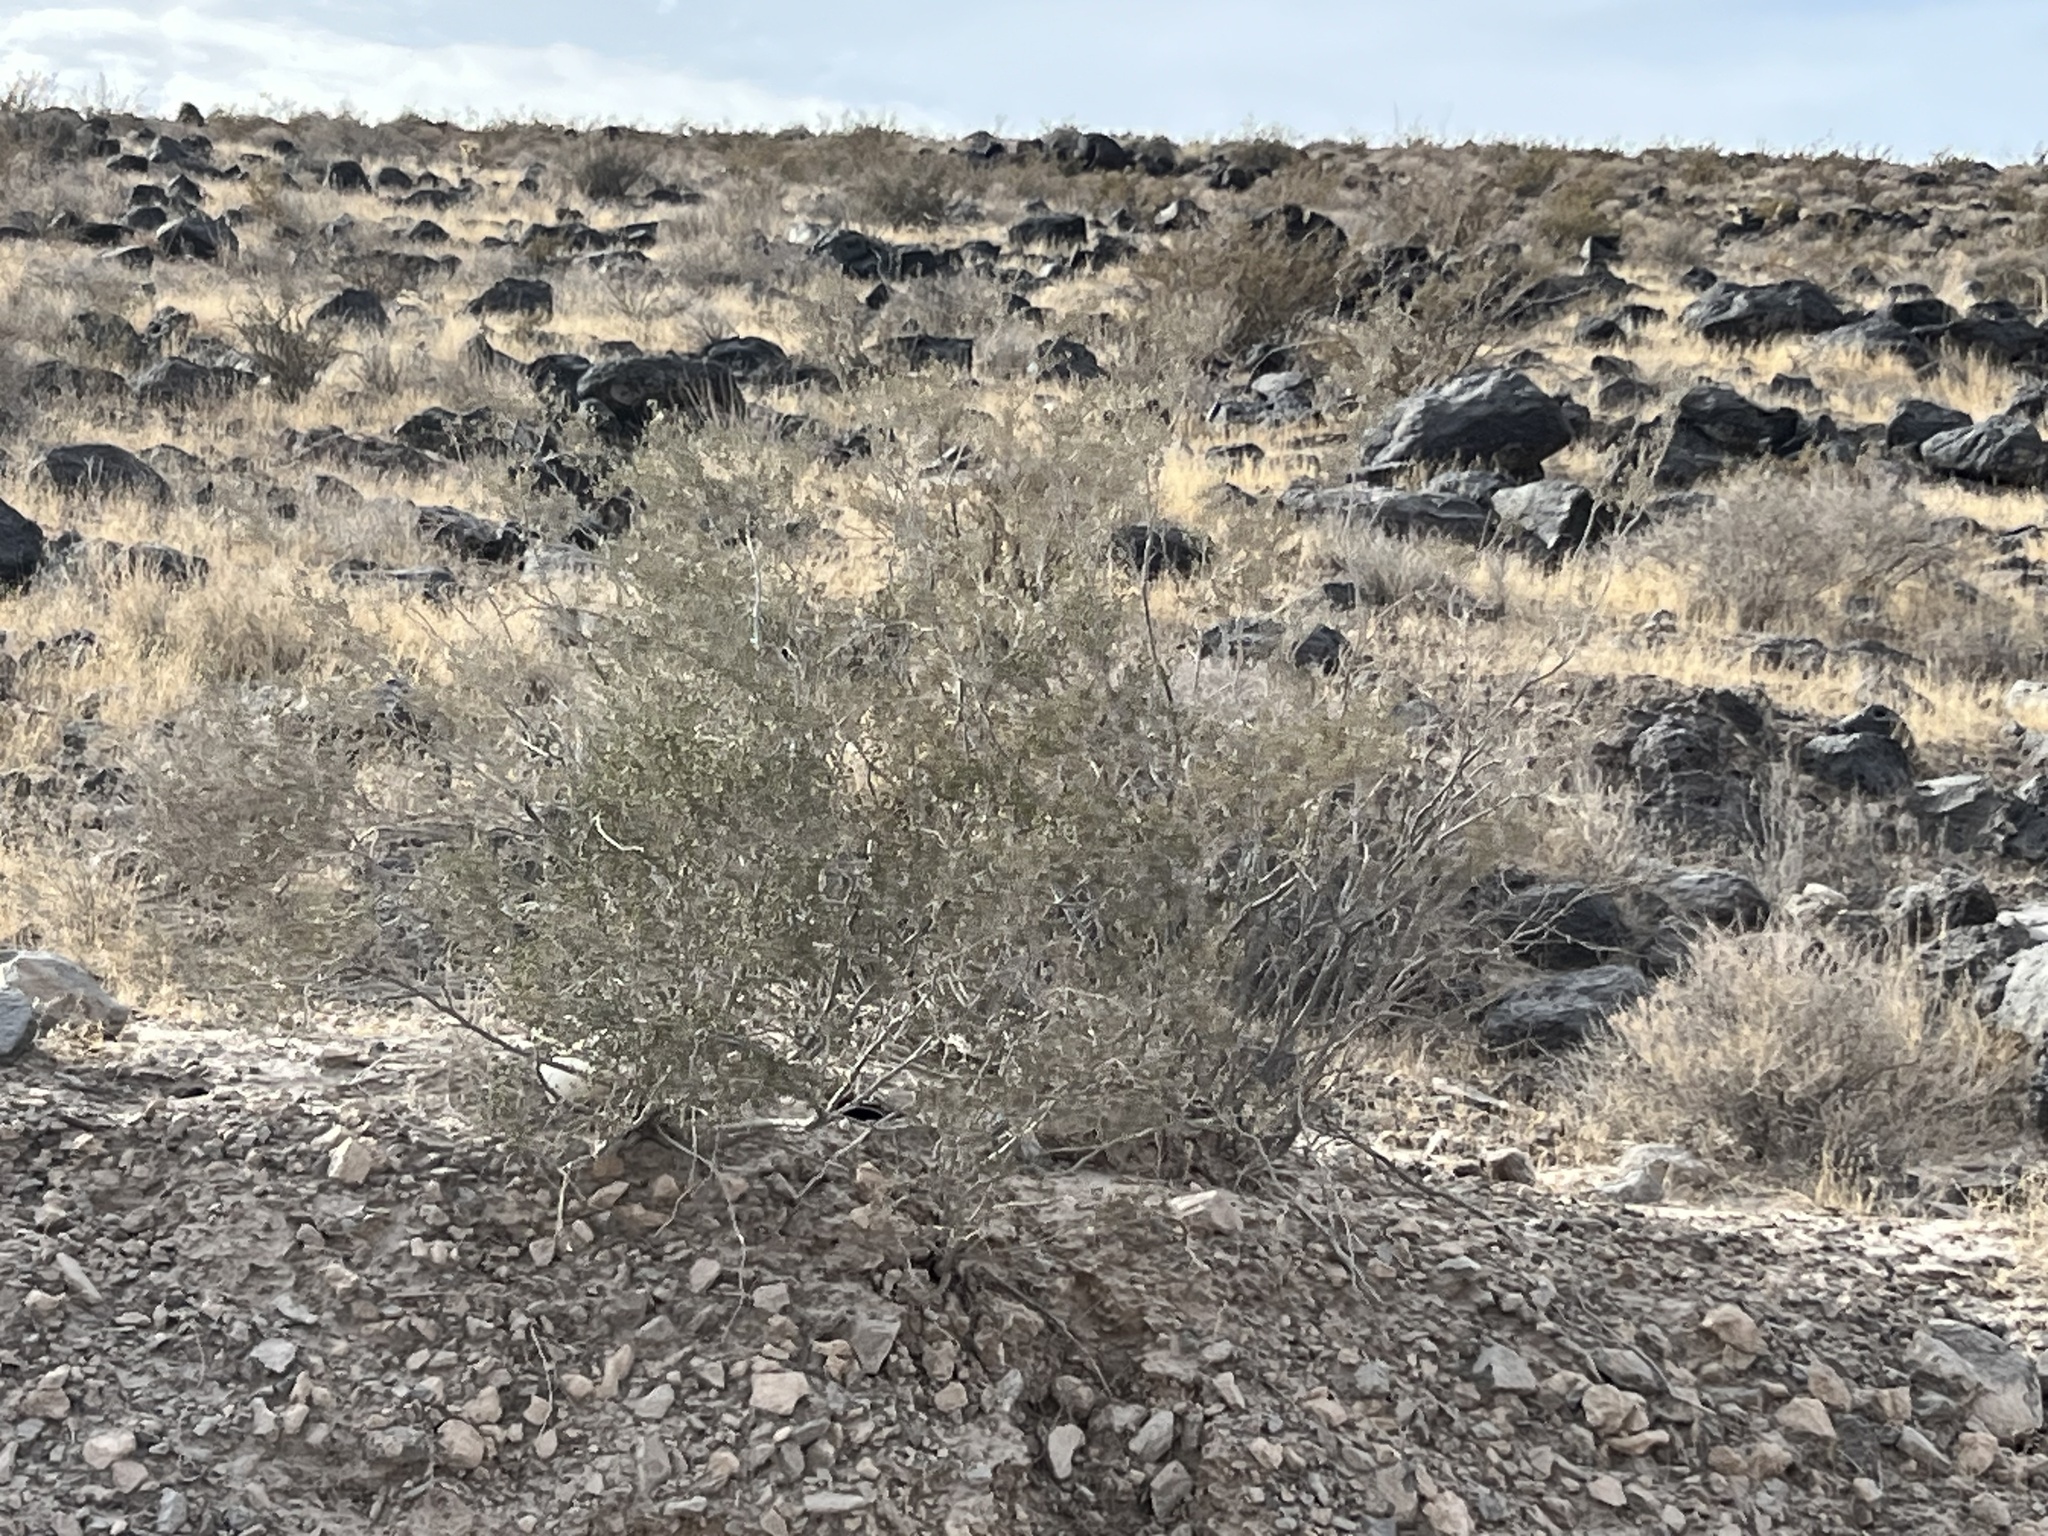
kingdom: Plantae
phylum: Tracheophyta
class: Magnoliopsida
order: Zygophyllales
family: Zygophyllaceae
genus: Larrea
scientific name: Larrea tridentata
